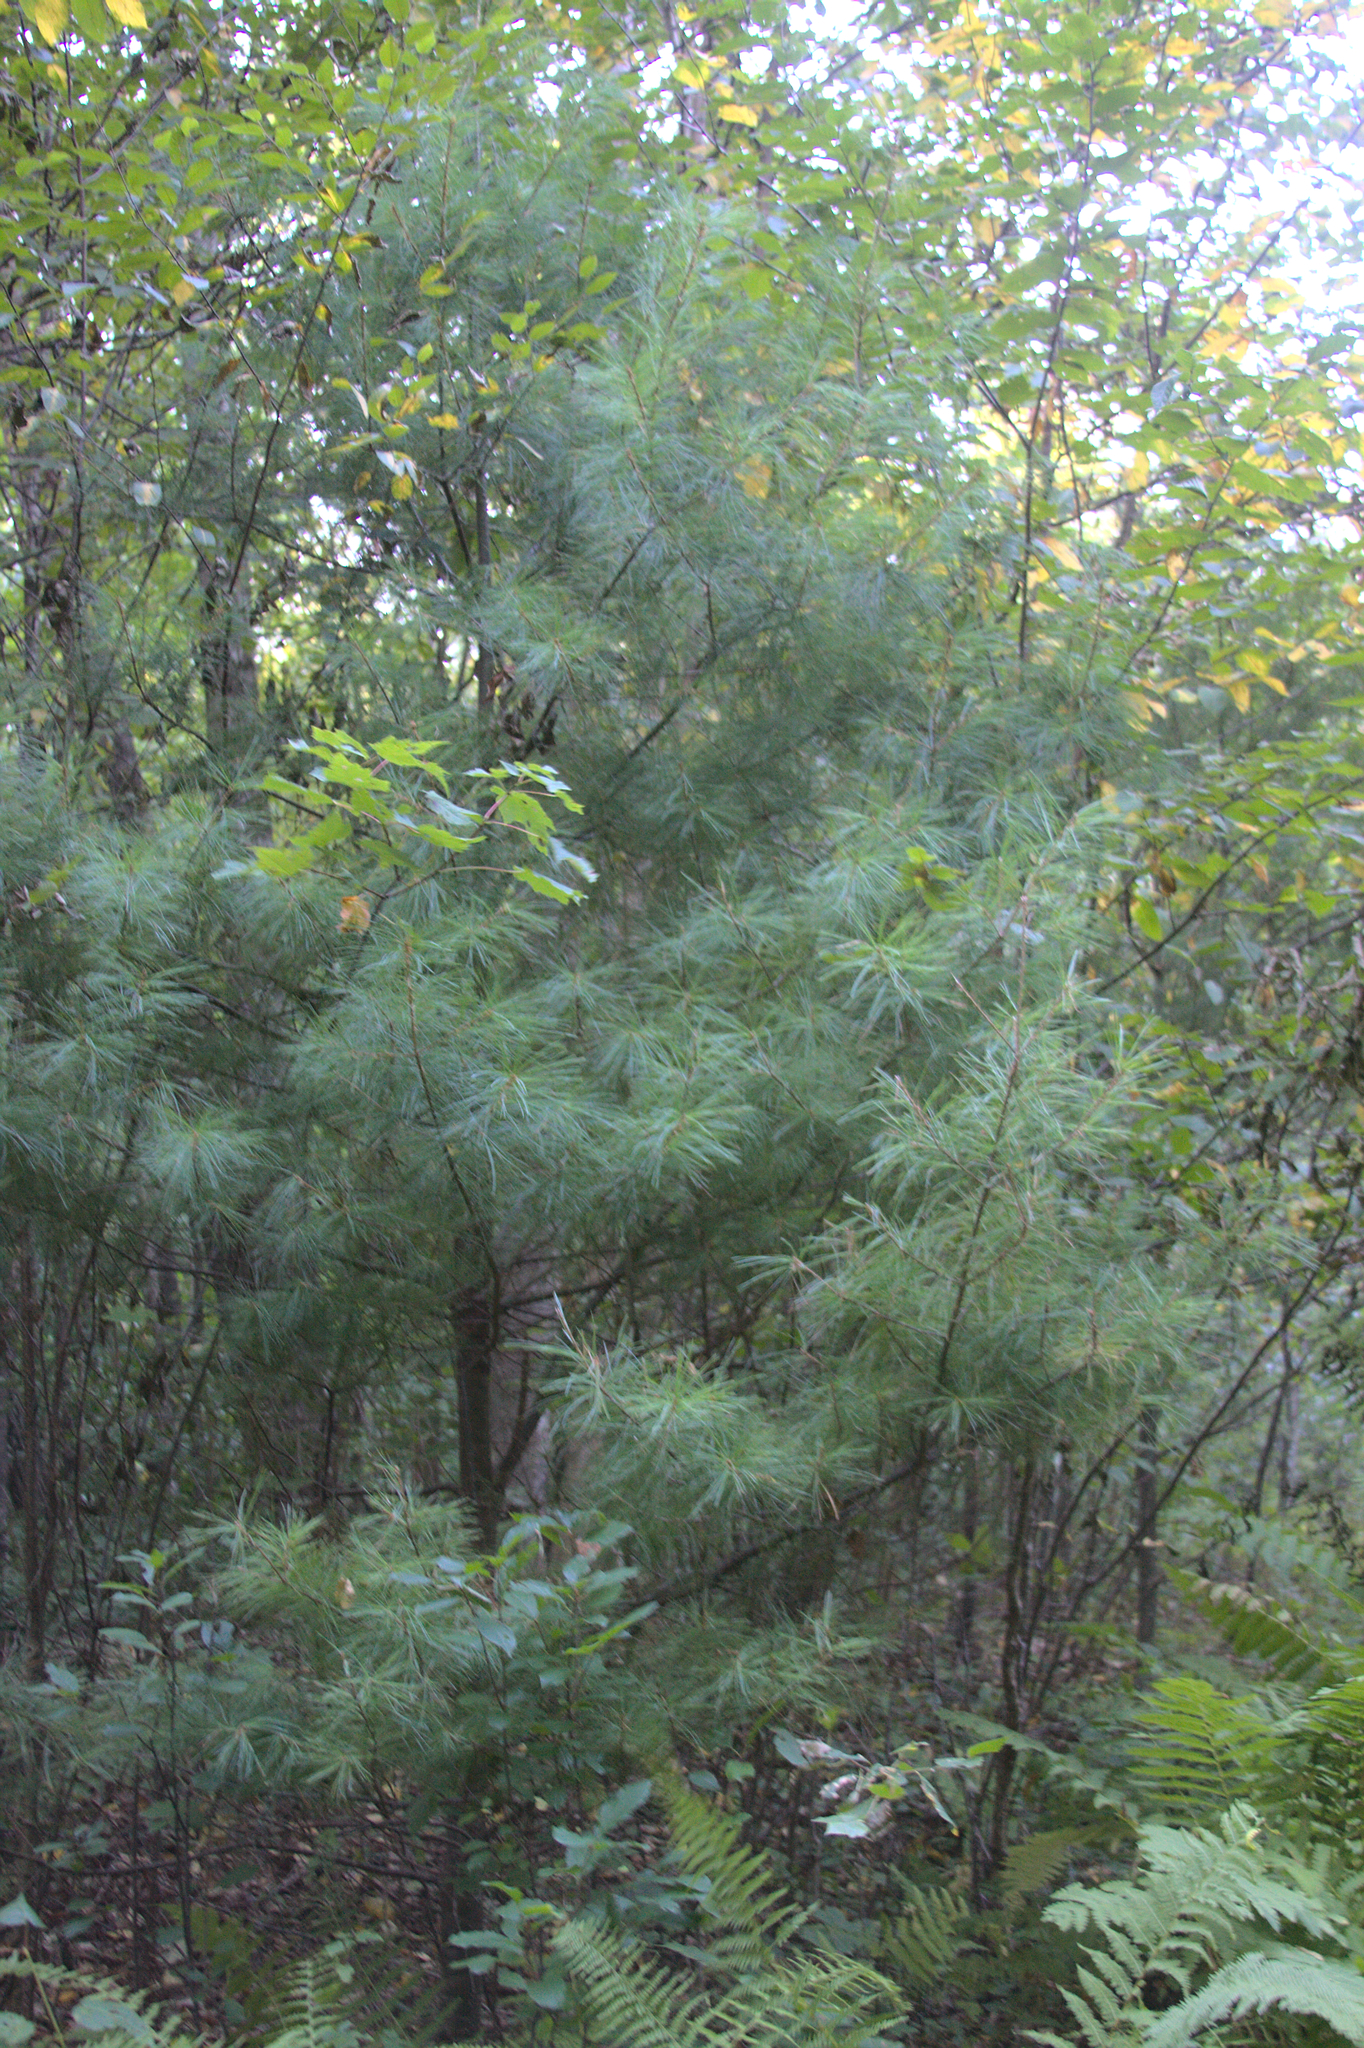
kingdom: Plantae
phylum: Tracheophyta
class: Pinopsida
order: Pinales
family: Pinaceae
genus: Pinus
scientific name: Pinus strobus
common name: Weymouth pine
